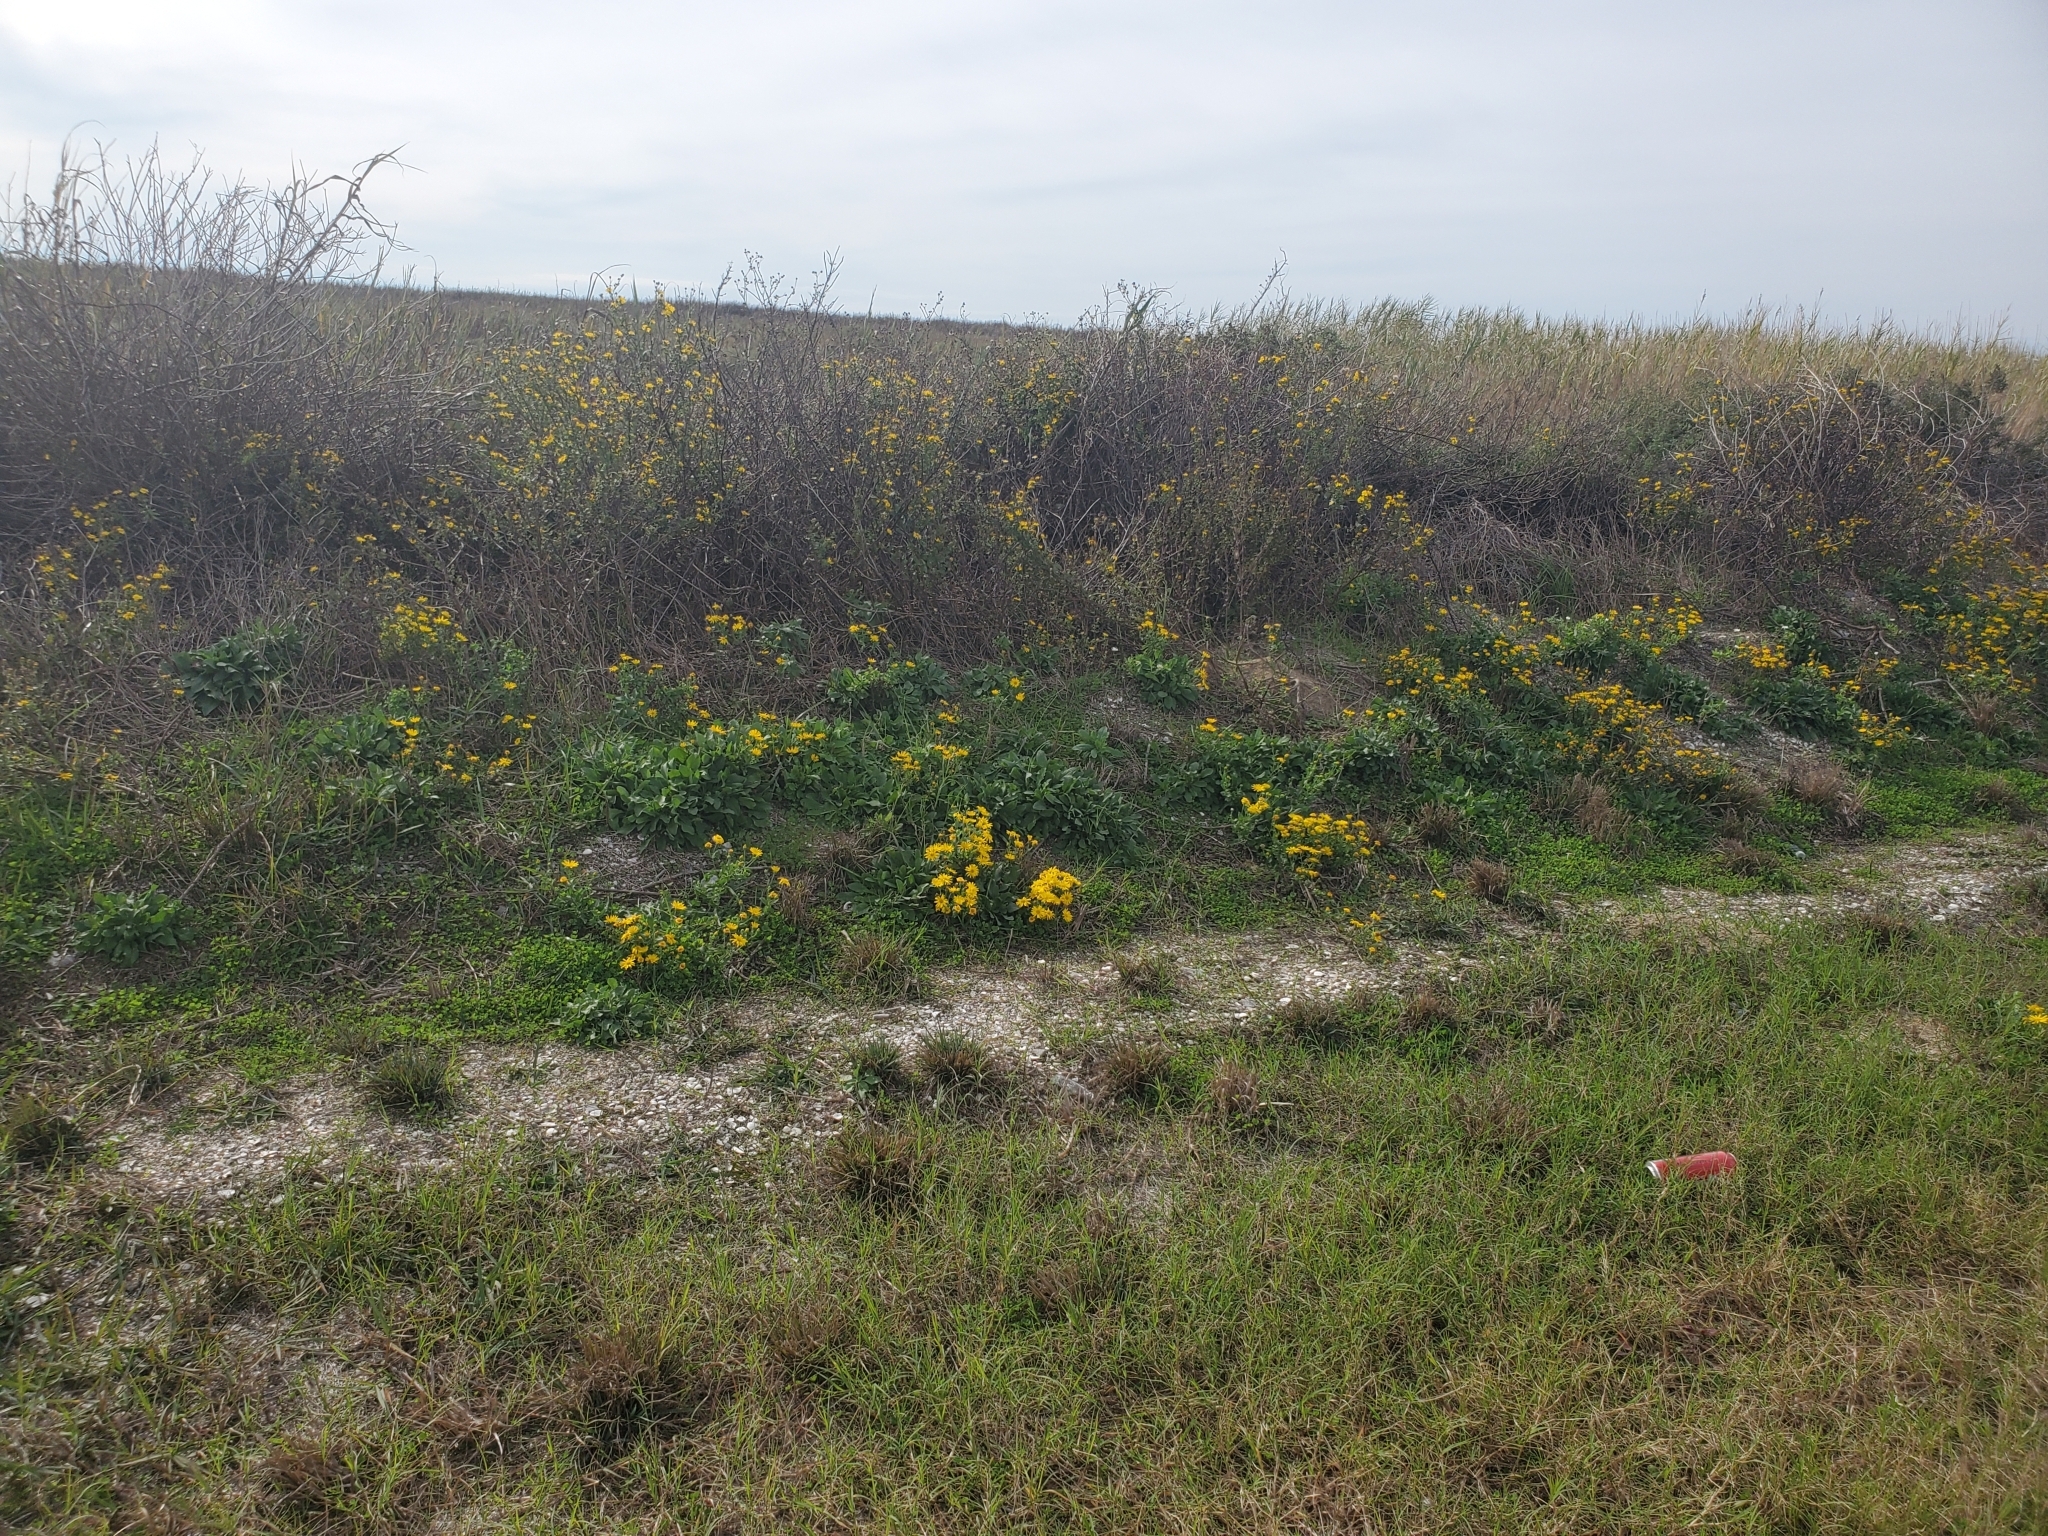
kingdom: Plantae
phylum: Tracheophyta
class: Magnoliopsida
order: Asterales
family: Asteraceae
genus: Heterotheca
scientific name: Heterotheca subaxillaris
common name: Camphorweed
